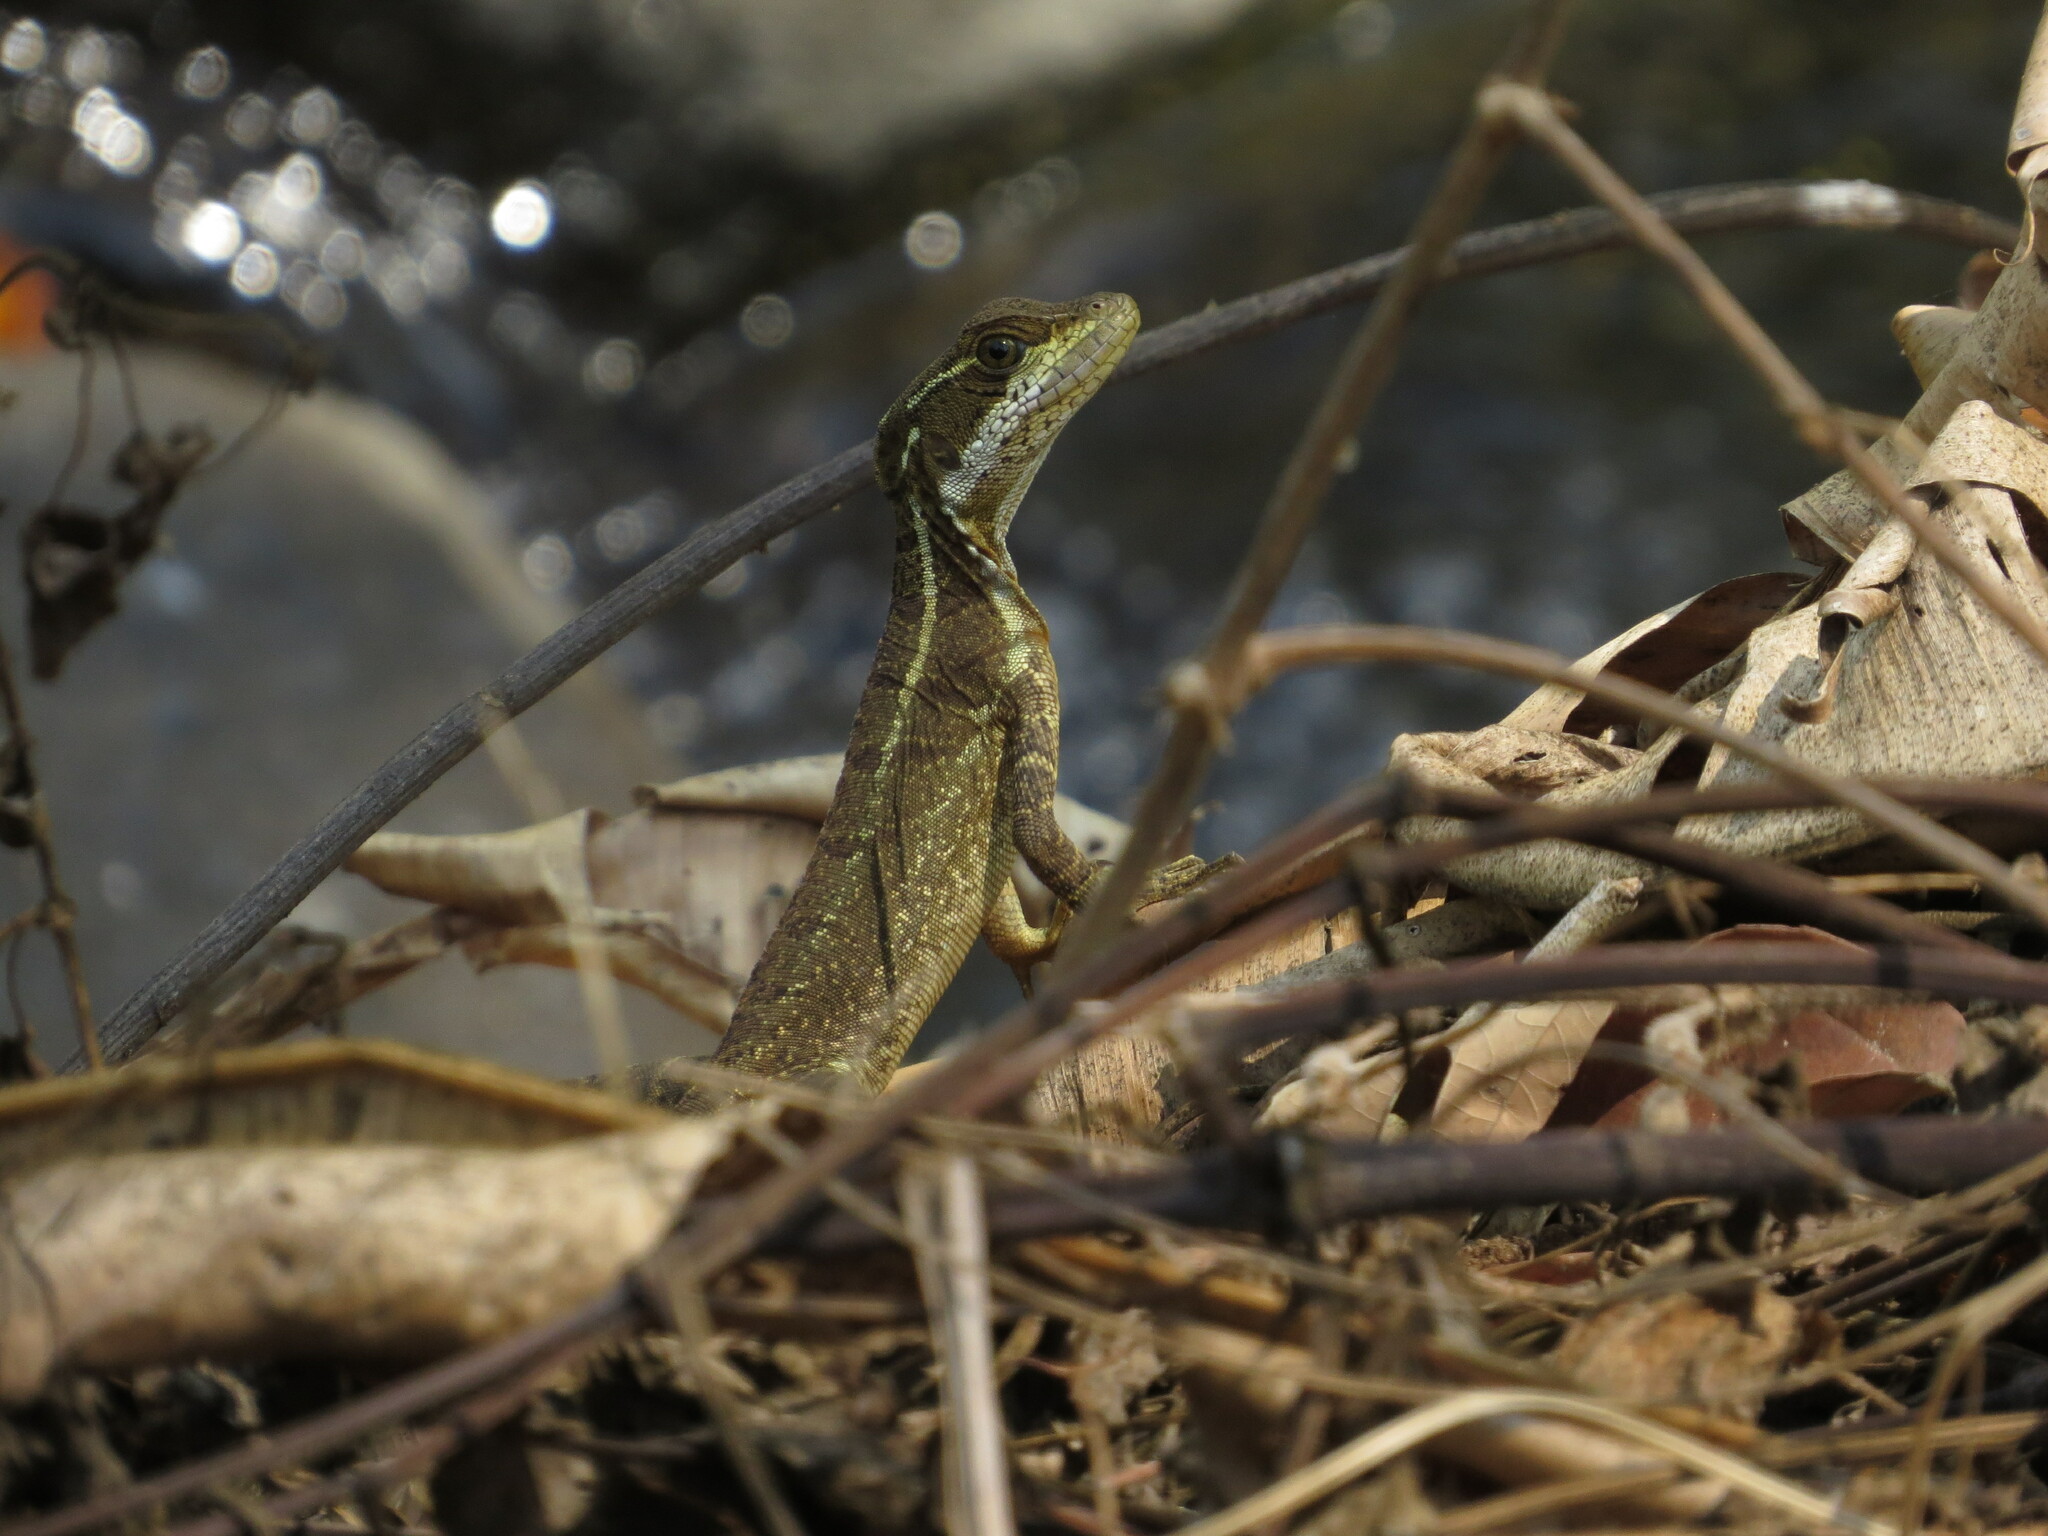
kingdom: Animalia
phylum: Chordata
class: Squamata
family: Corytophanidae
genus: Basiliscus
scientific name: Basiliscus basiliscus
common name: Common basilisk
